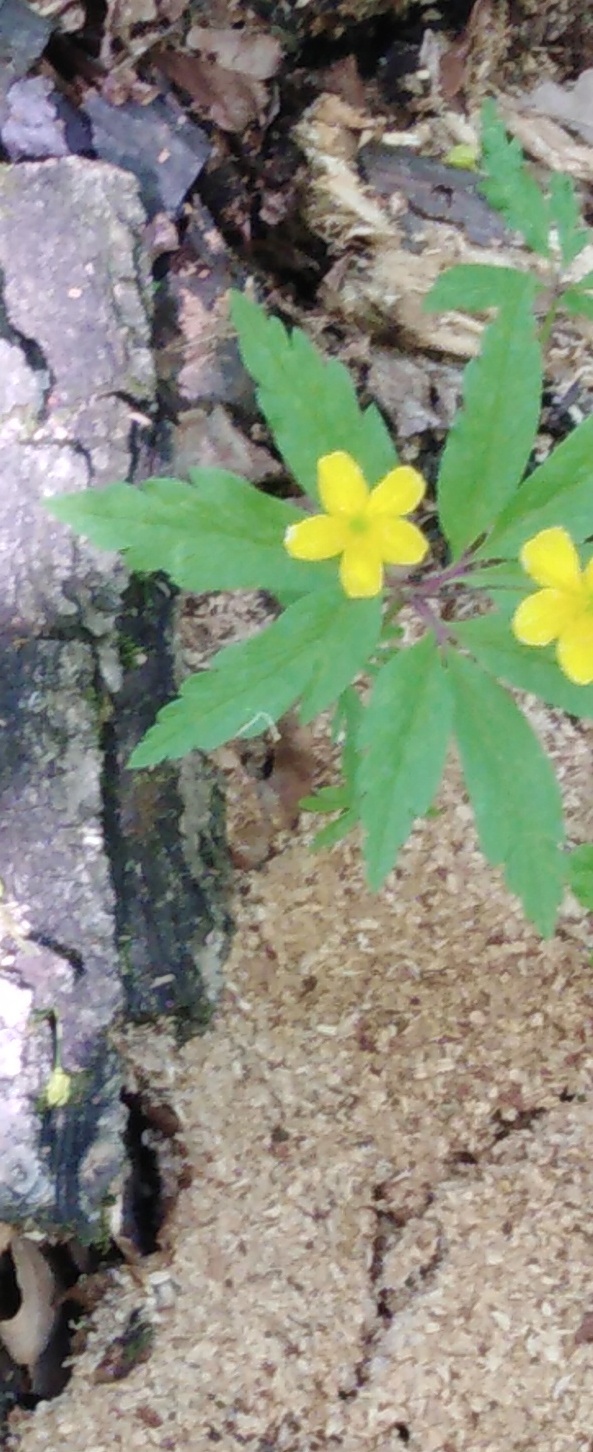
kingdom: Plantae
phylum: Tracheophyta
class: Magnoliopsida
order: Ranunculales
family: Ranunculaceae
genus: Anemone
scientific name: Anemone ranunculoides
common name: Yellow anemone
